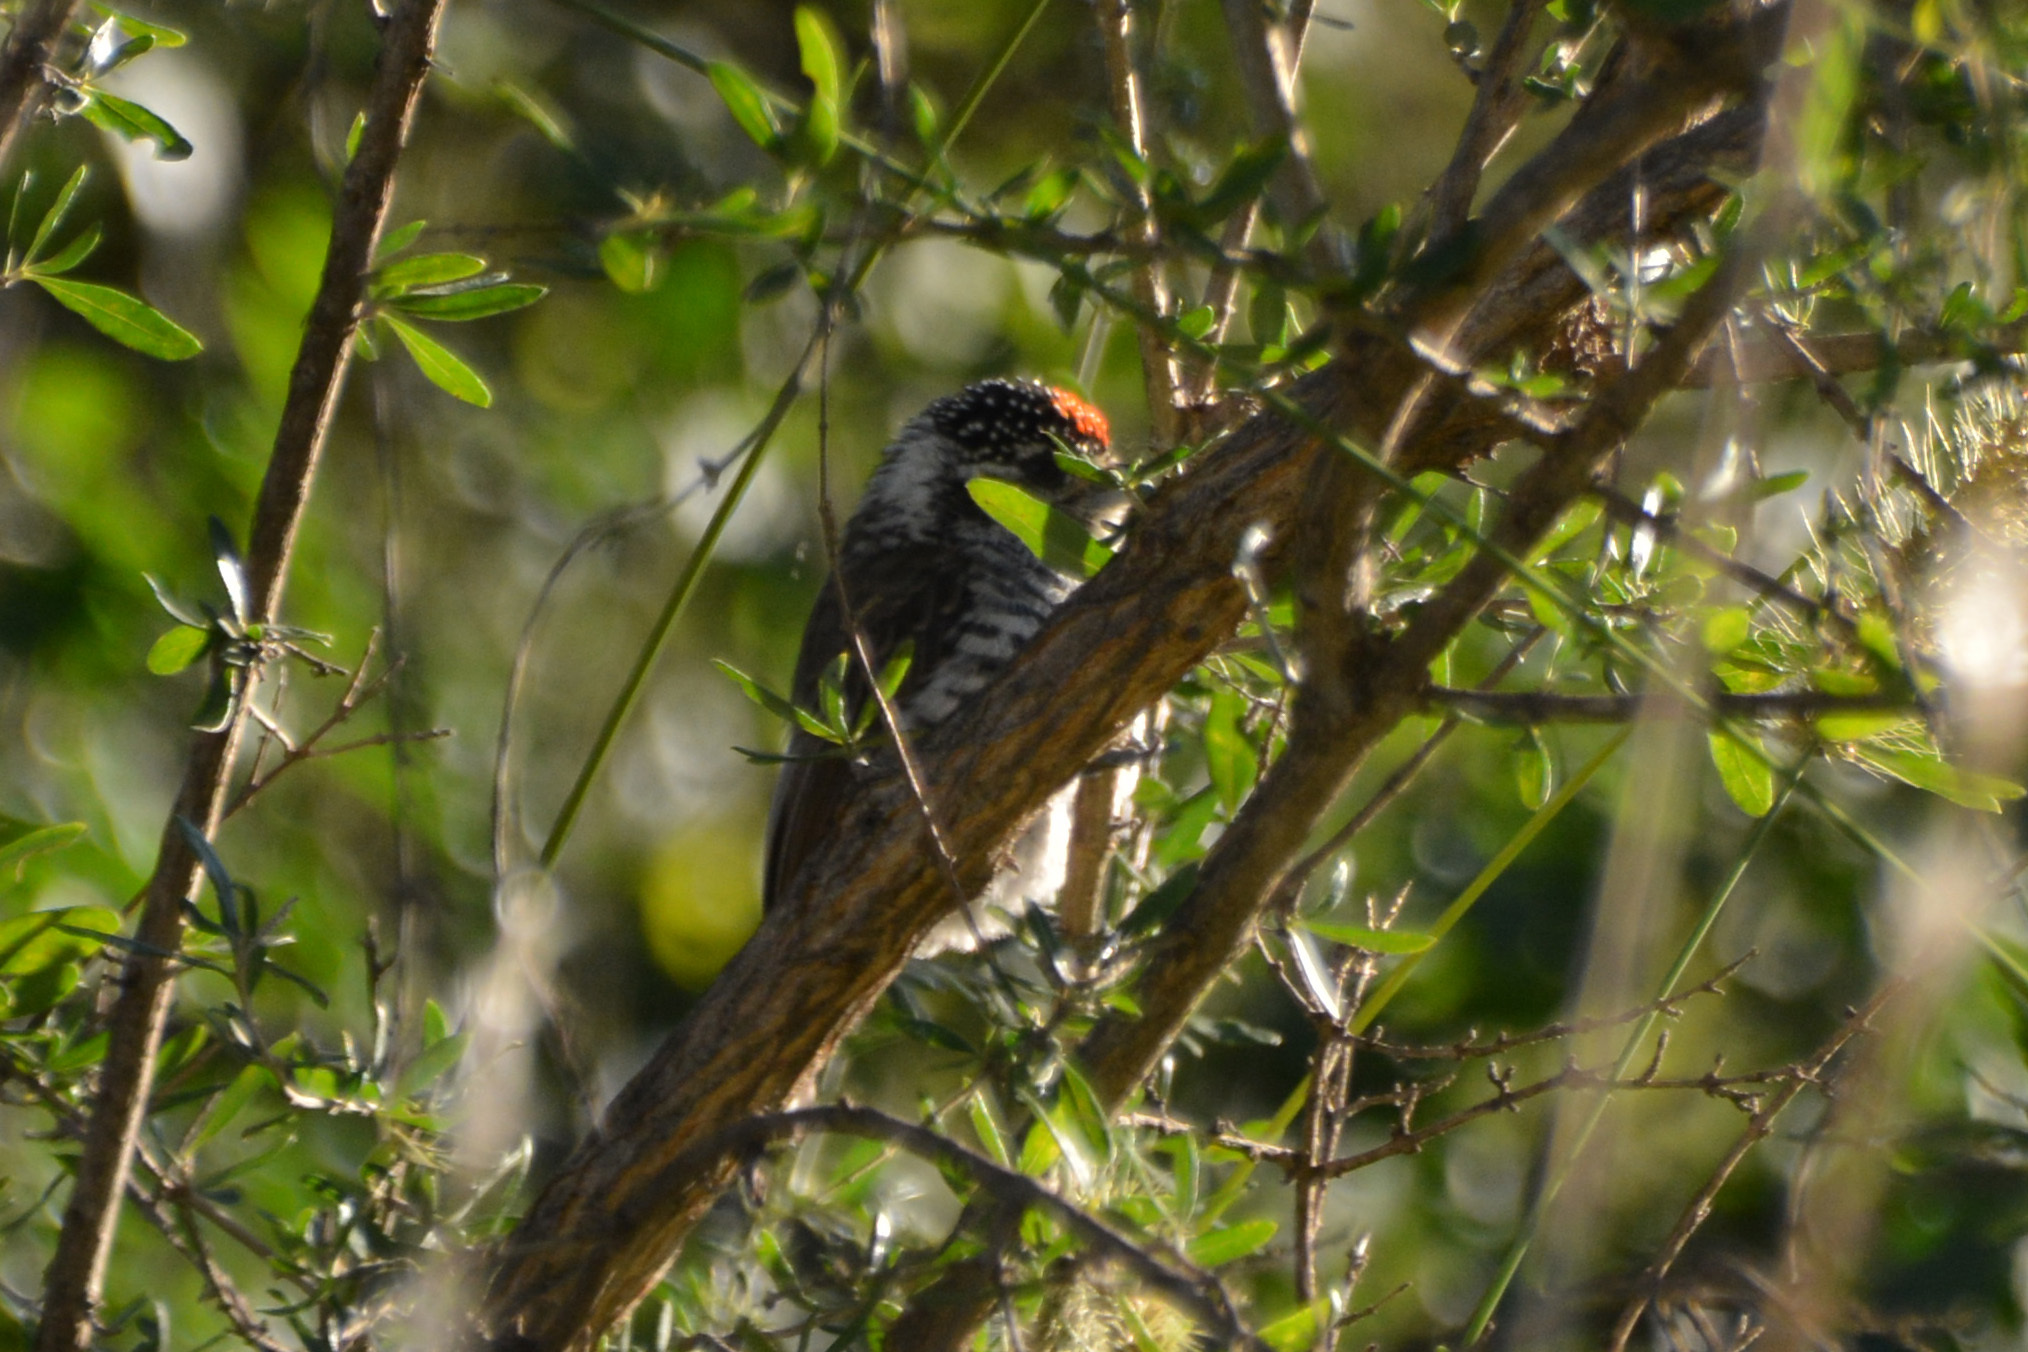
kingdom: Animalia
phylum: Chordata
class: Aves
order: Piciformes
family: Picidae
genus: Picumnus
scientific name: Picumnus cirratus
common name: White-barred piculet
